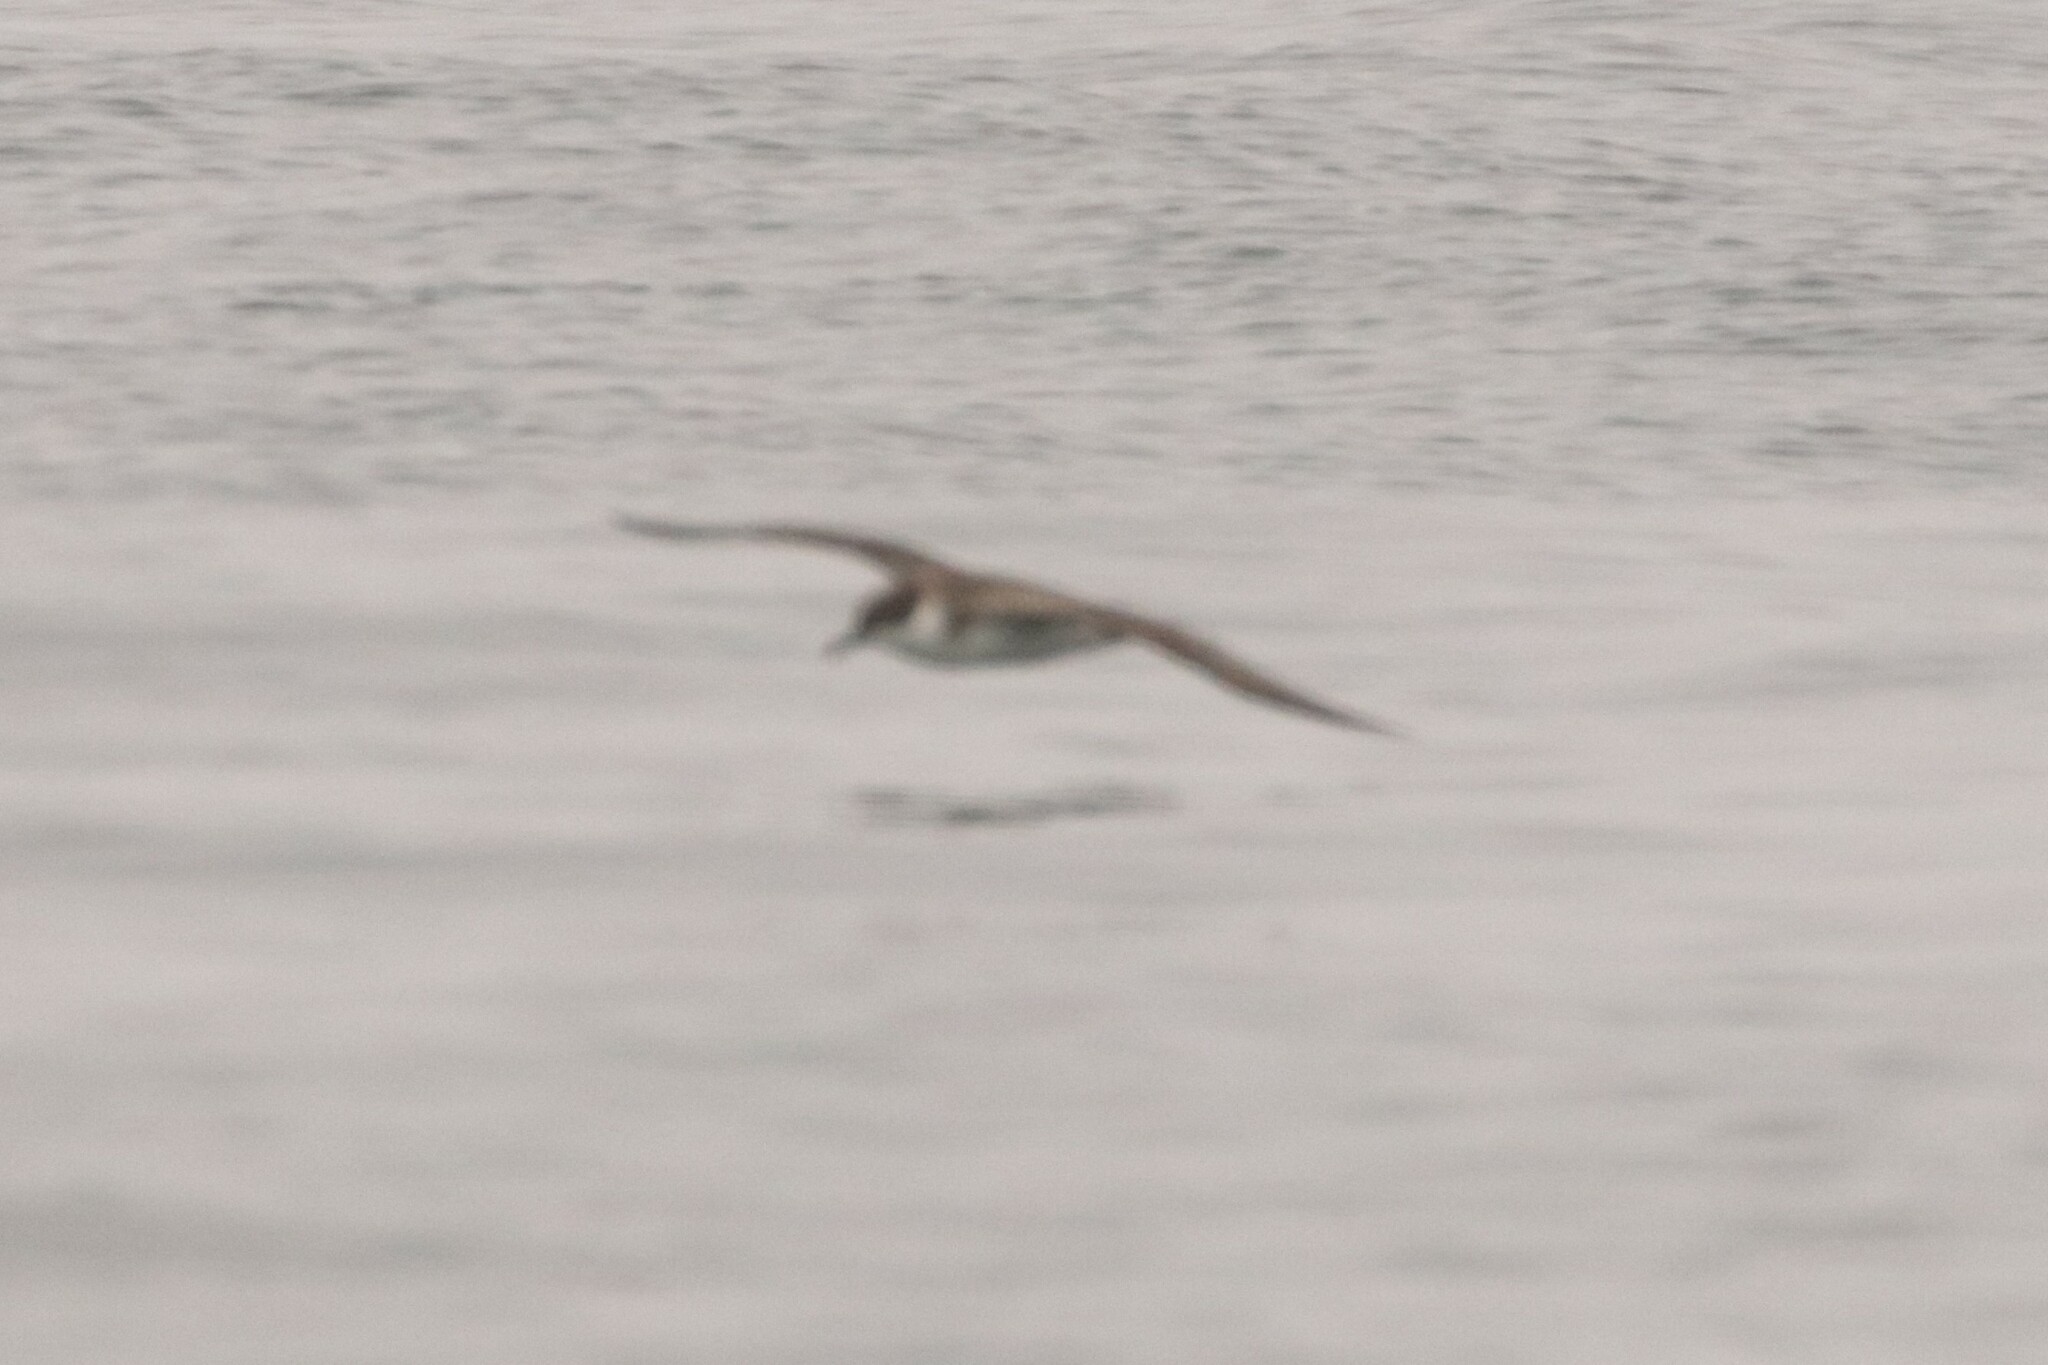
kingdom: Animalia
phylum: Chordata
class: Aves
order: Procellariiformes
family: Procellariidae
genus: Puffinus
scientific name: Puffinus gravis
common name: Great shearwater
